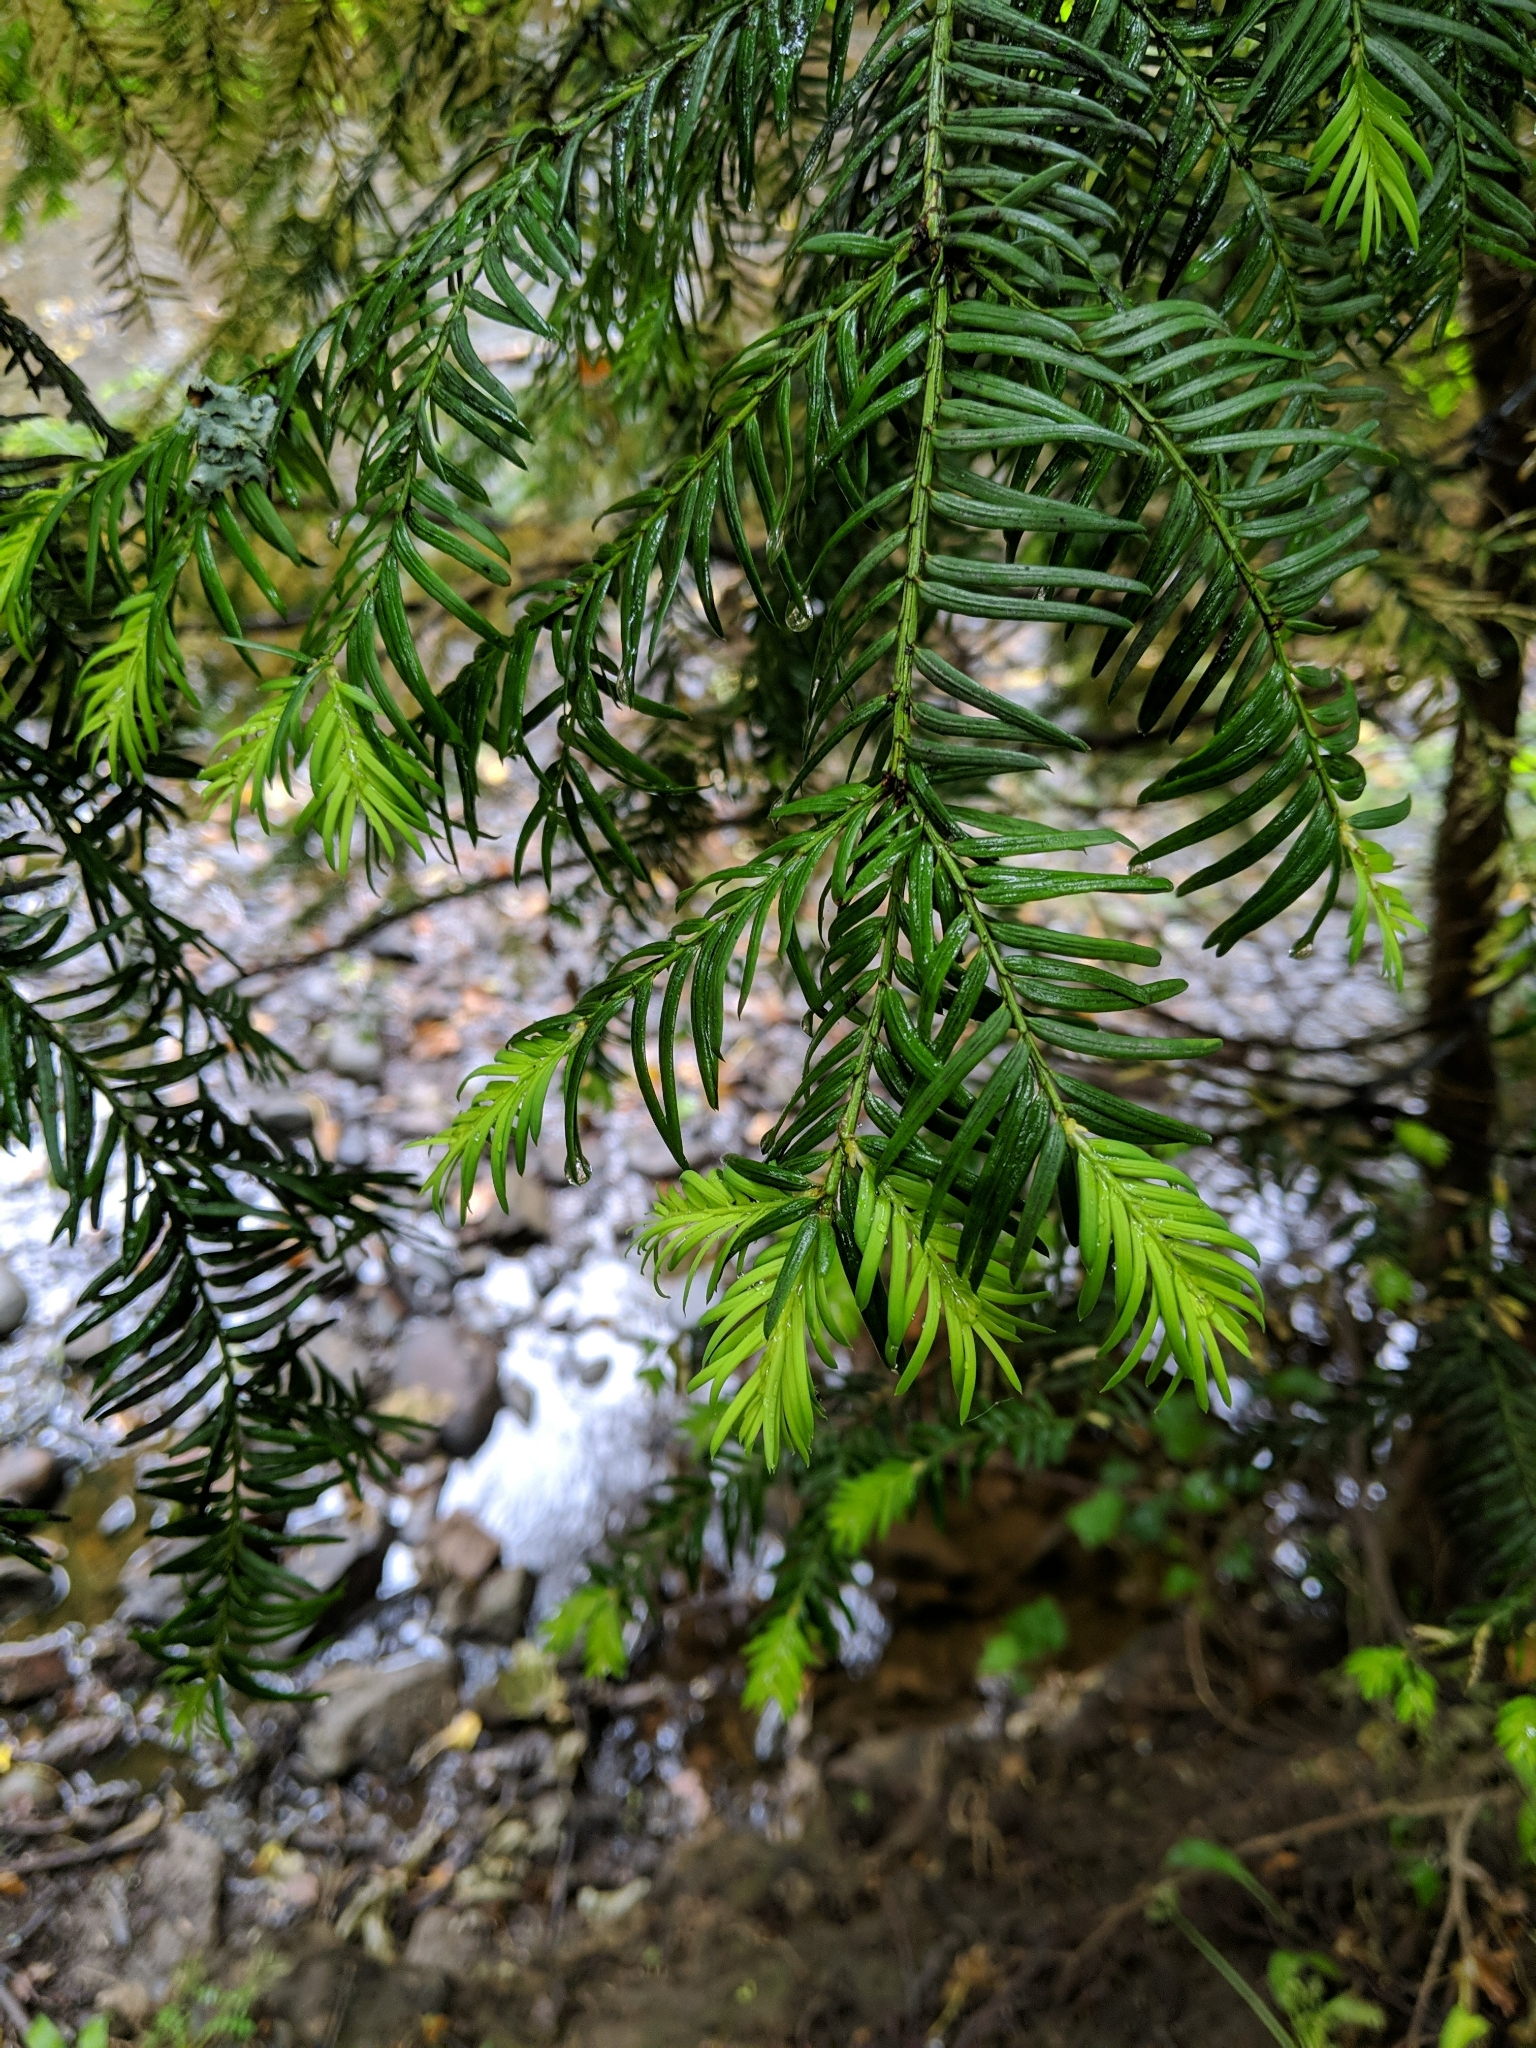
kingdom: Plantae
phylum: Tracheophyta
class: Pinopsida
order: Pinales
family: Taxaceae
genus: Taxus
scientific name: Taxus baccata
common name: Yew
